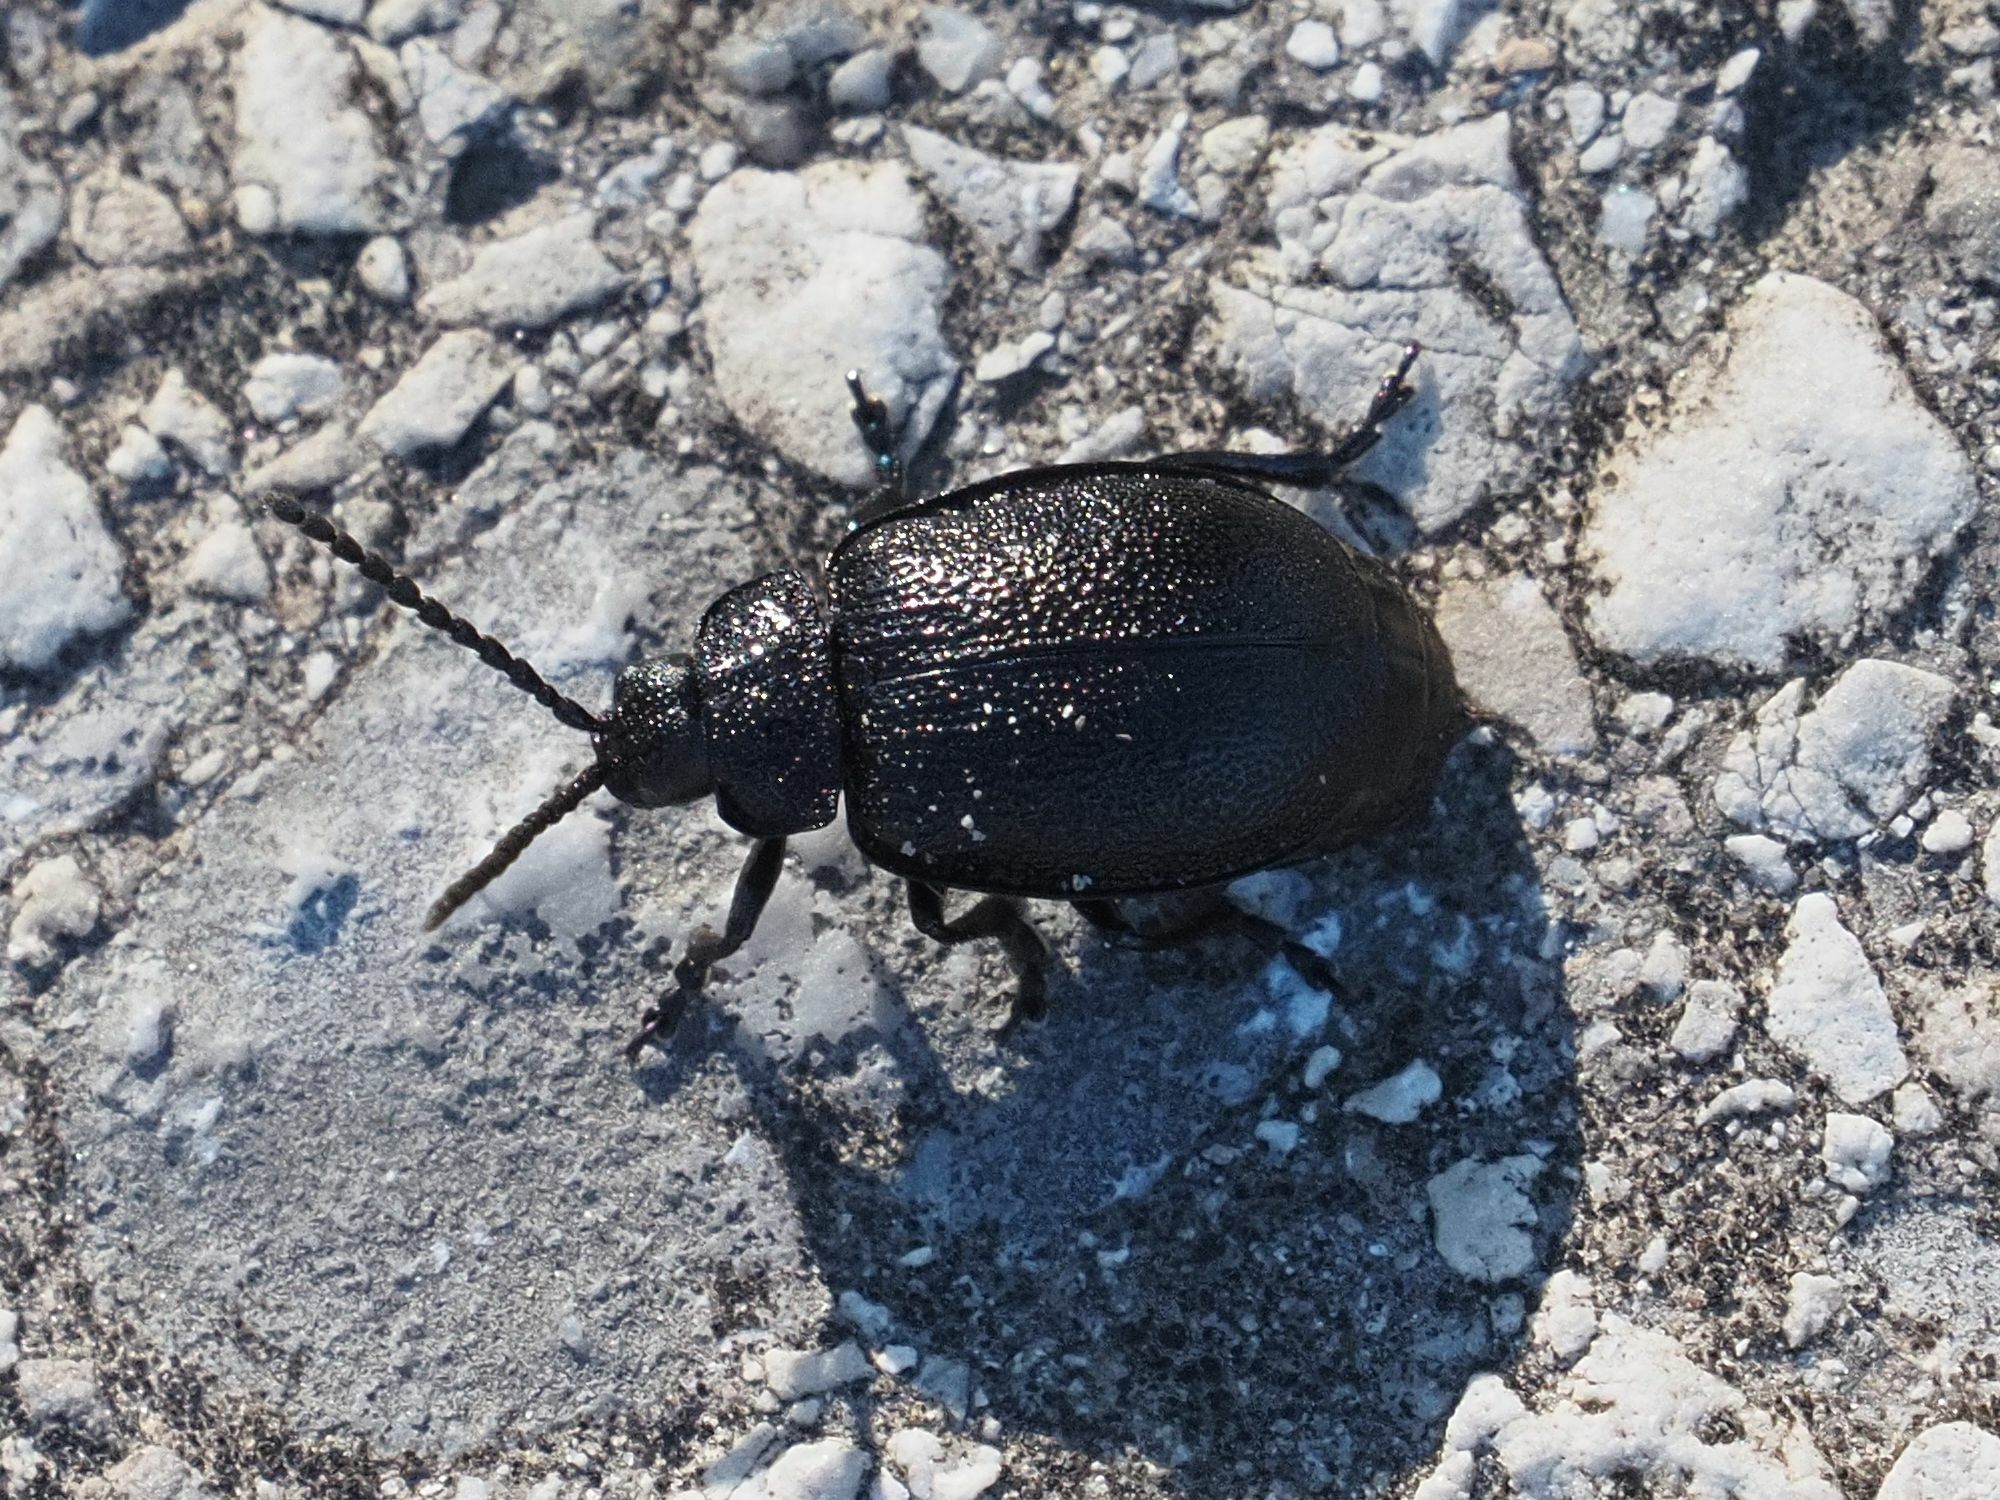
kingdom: Animalia
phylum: Arthropoda
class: Insecta
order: Coleoptera
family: Chrysomelidae
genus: Galeruca
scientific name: Galeruca tanaceti
